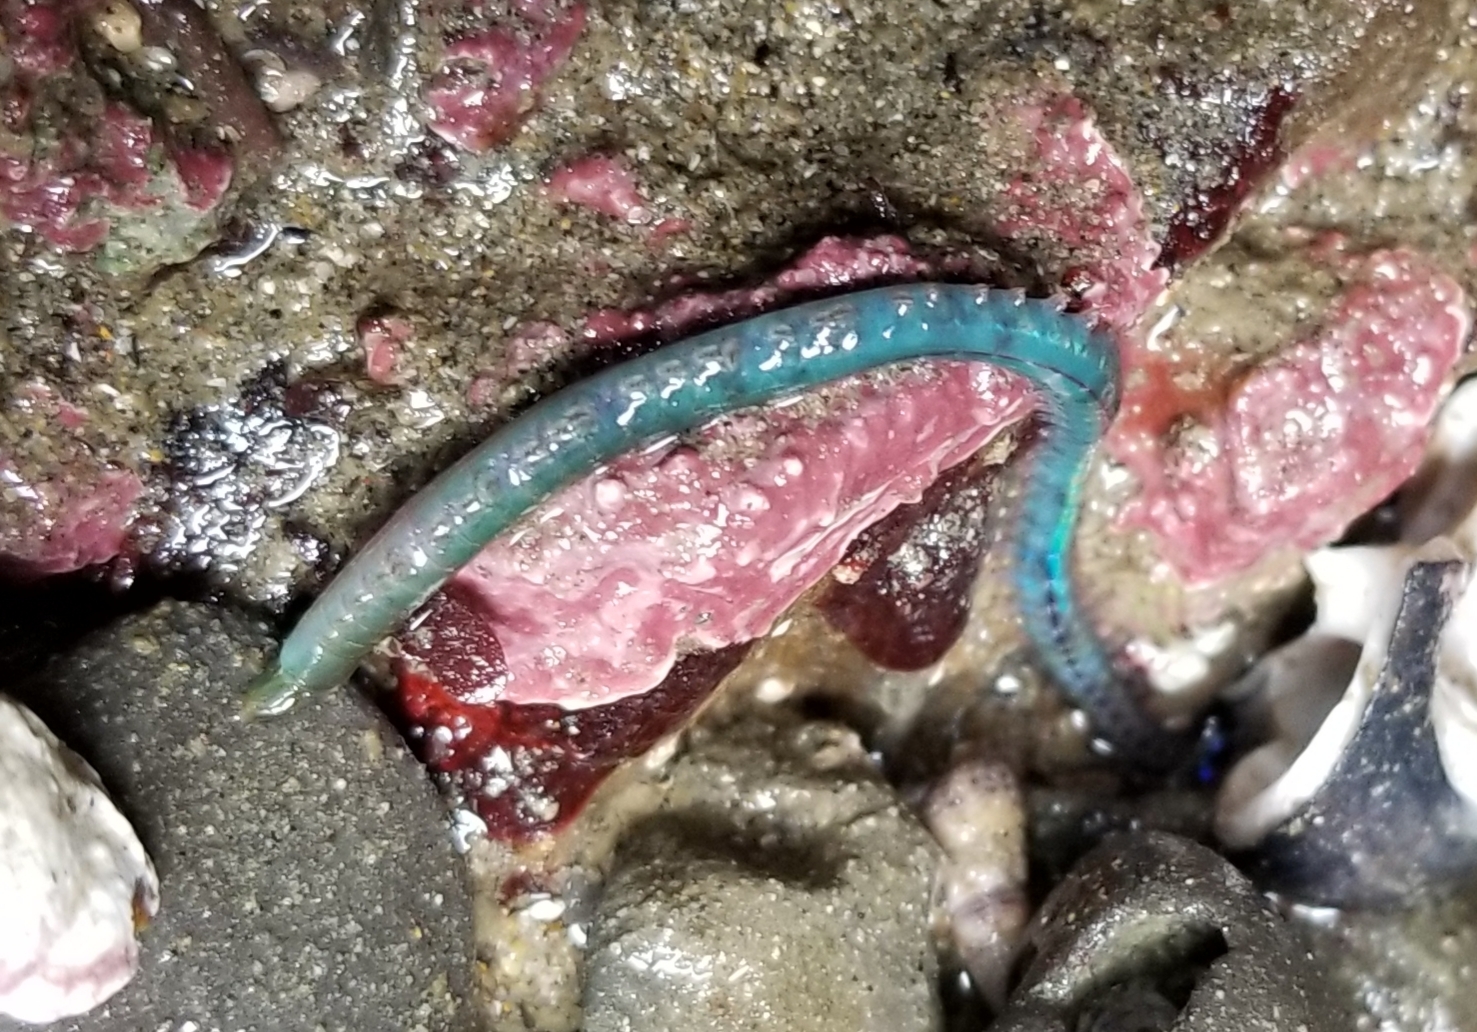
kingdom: Animalia
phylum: Annelida
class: Polychaeta
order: Phyllodocida
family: Nereididae
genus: Nereis
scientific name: Nereis grubei
